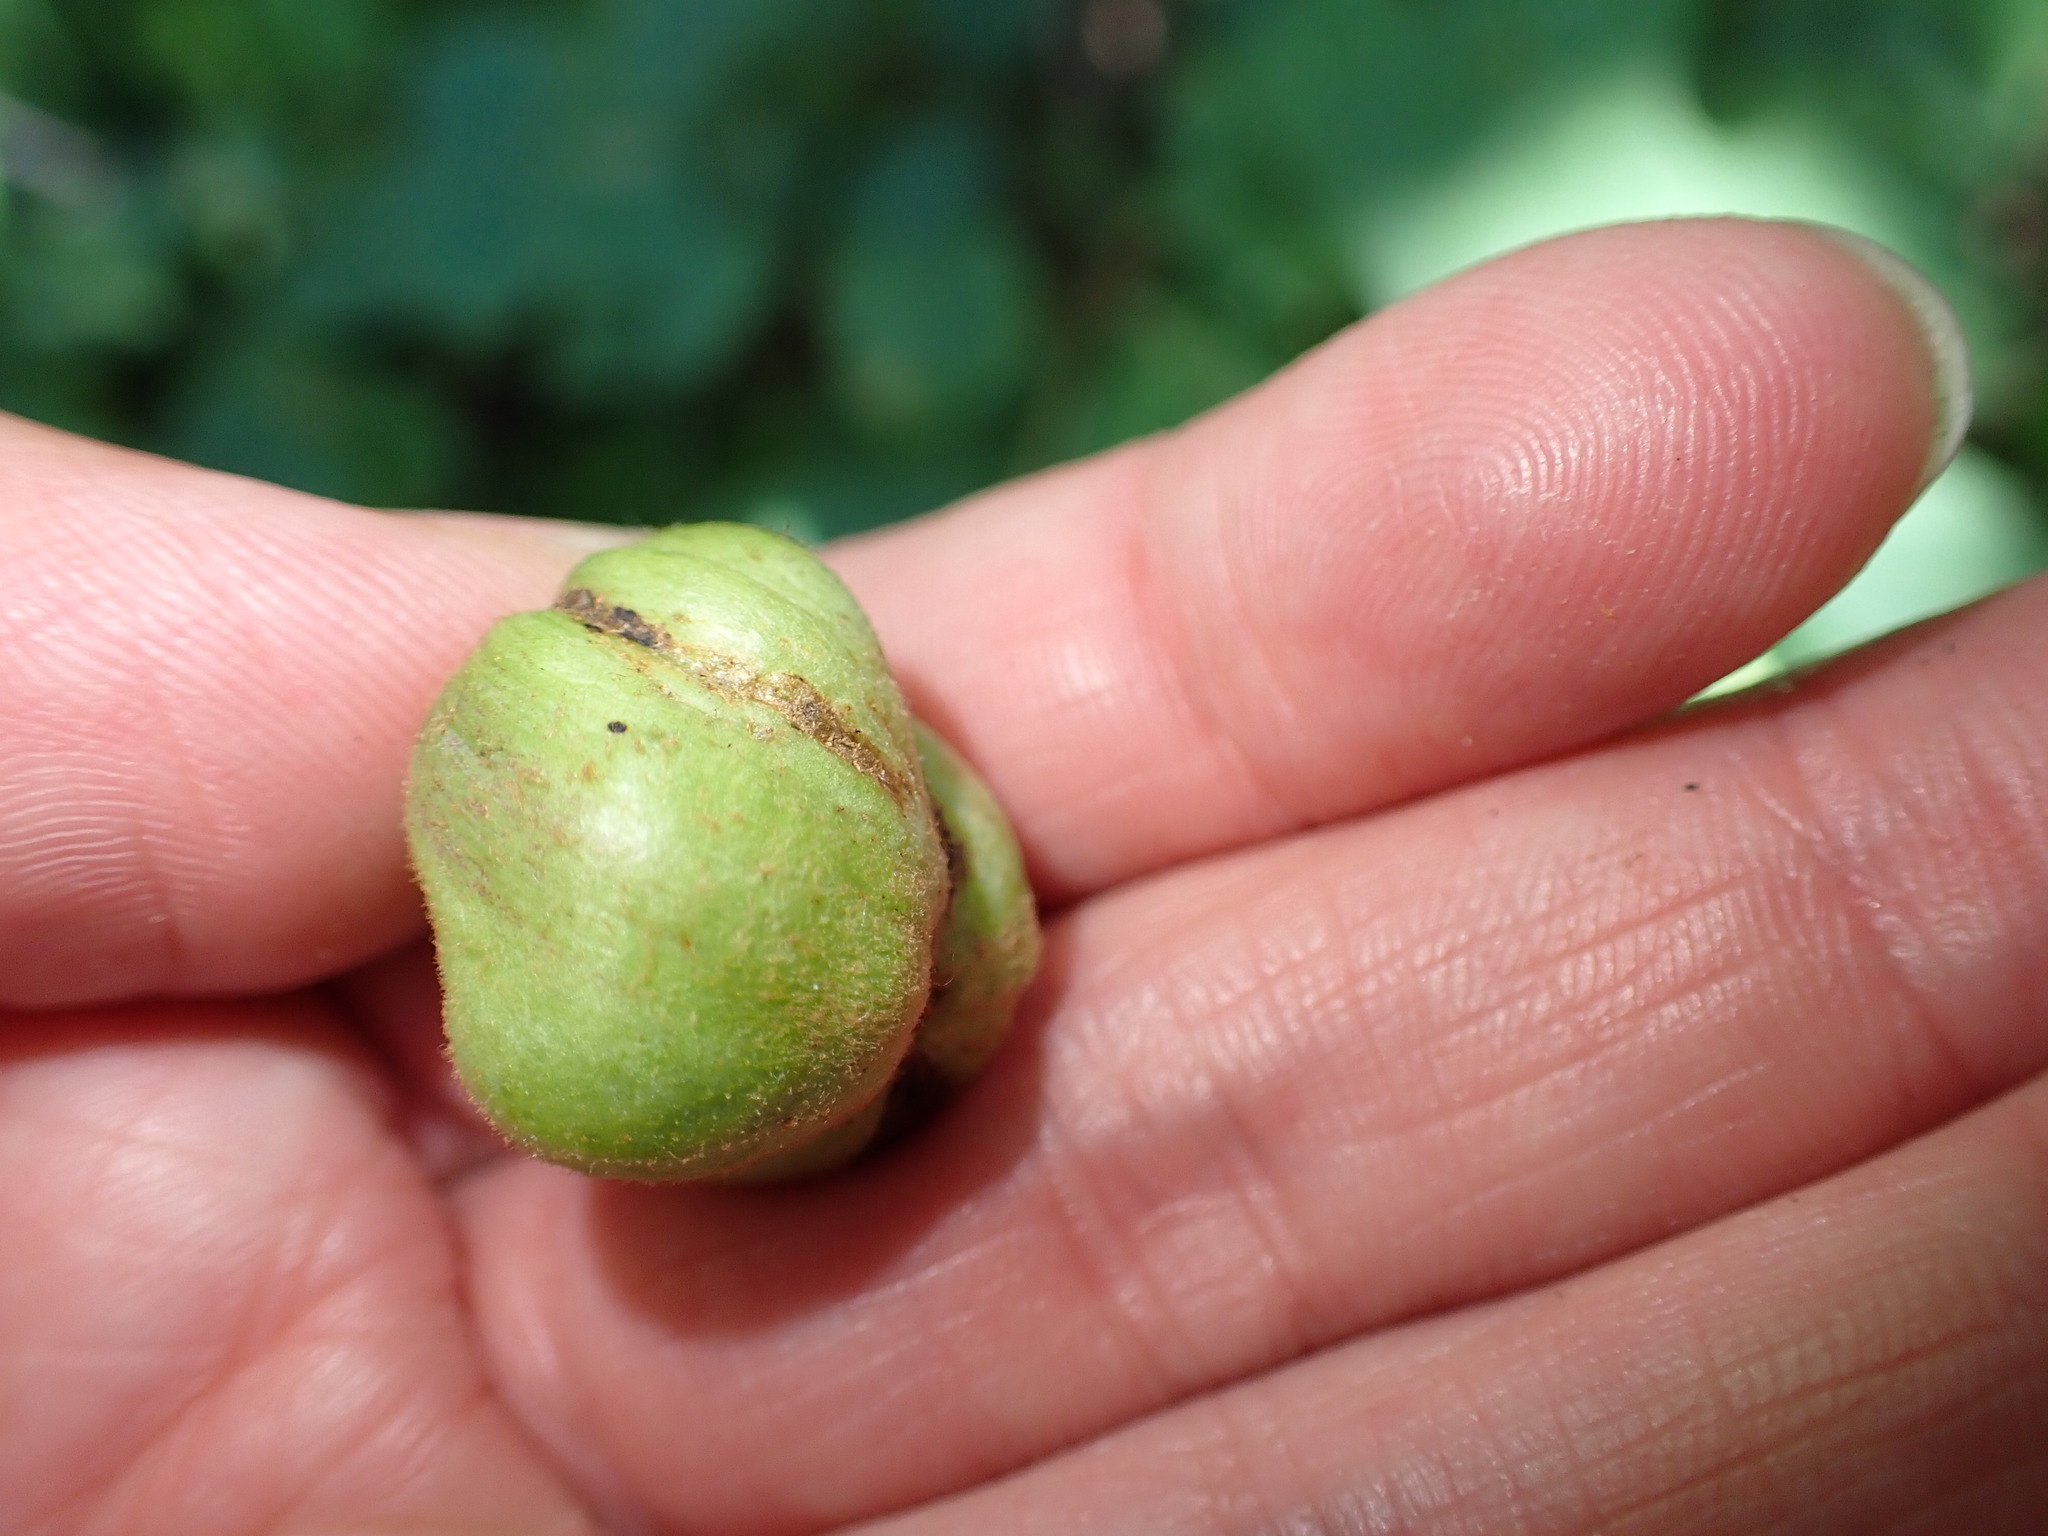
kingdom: Animalia
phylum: Arthropoda
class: Insecta
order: Diptera
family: Cecidomyiidae
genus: Ampelomyia
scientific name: Ampelomyia vitispomum
